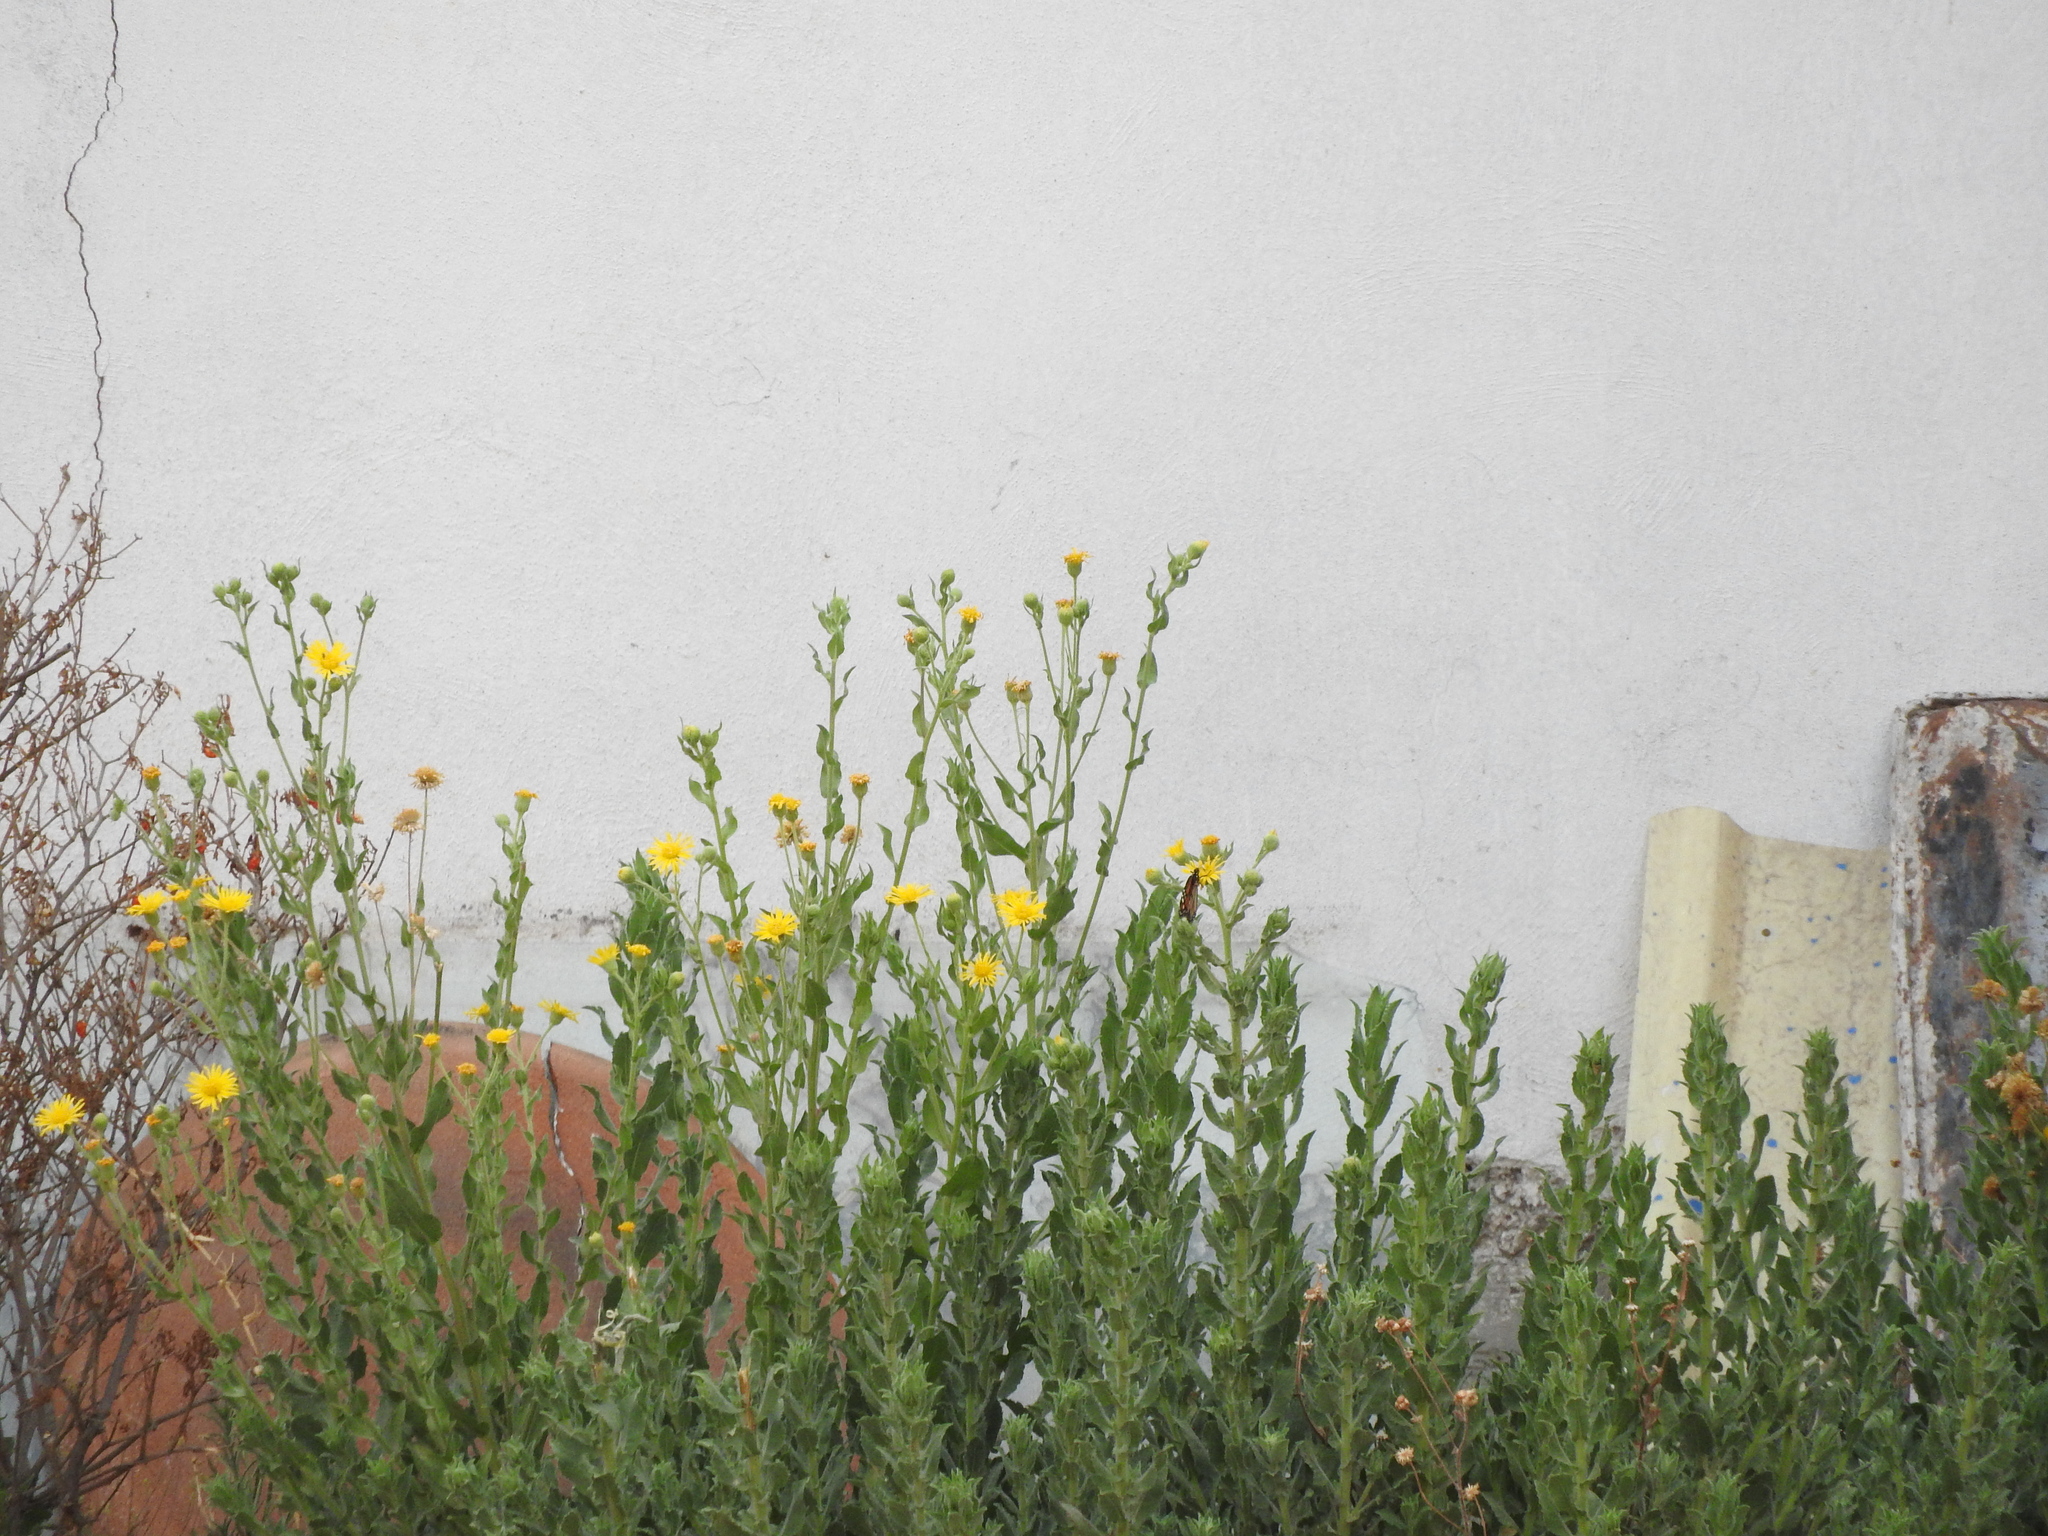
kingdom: Plantae
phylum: Tracheophyta
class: Magnoliopsida
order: Asterales
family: Asteraceae
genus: Heterotheca
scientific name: Heterotheca inuloides
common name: False arnica
